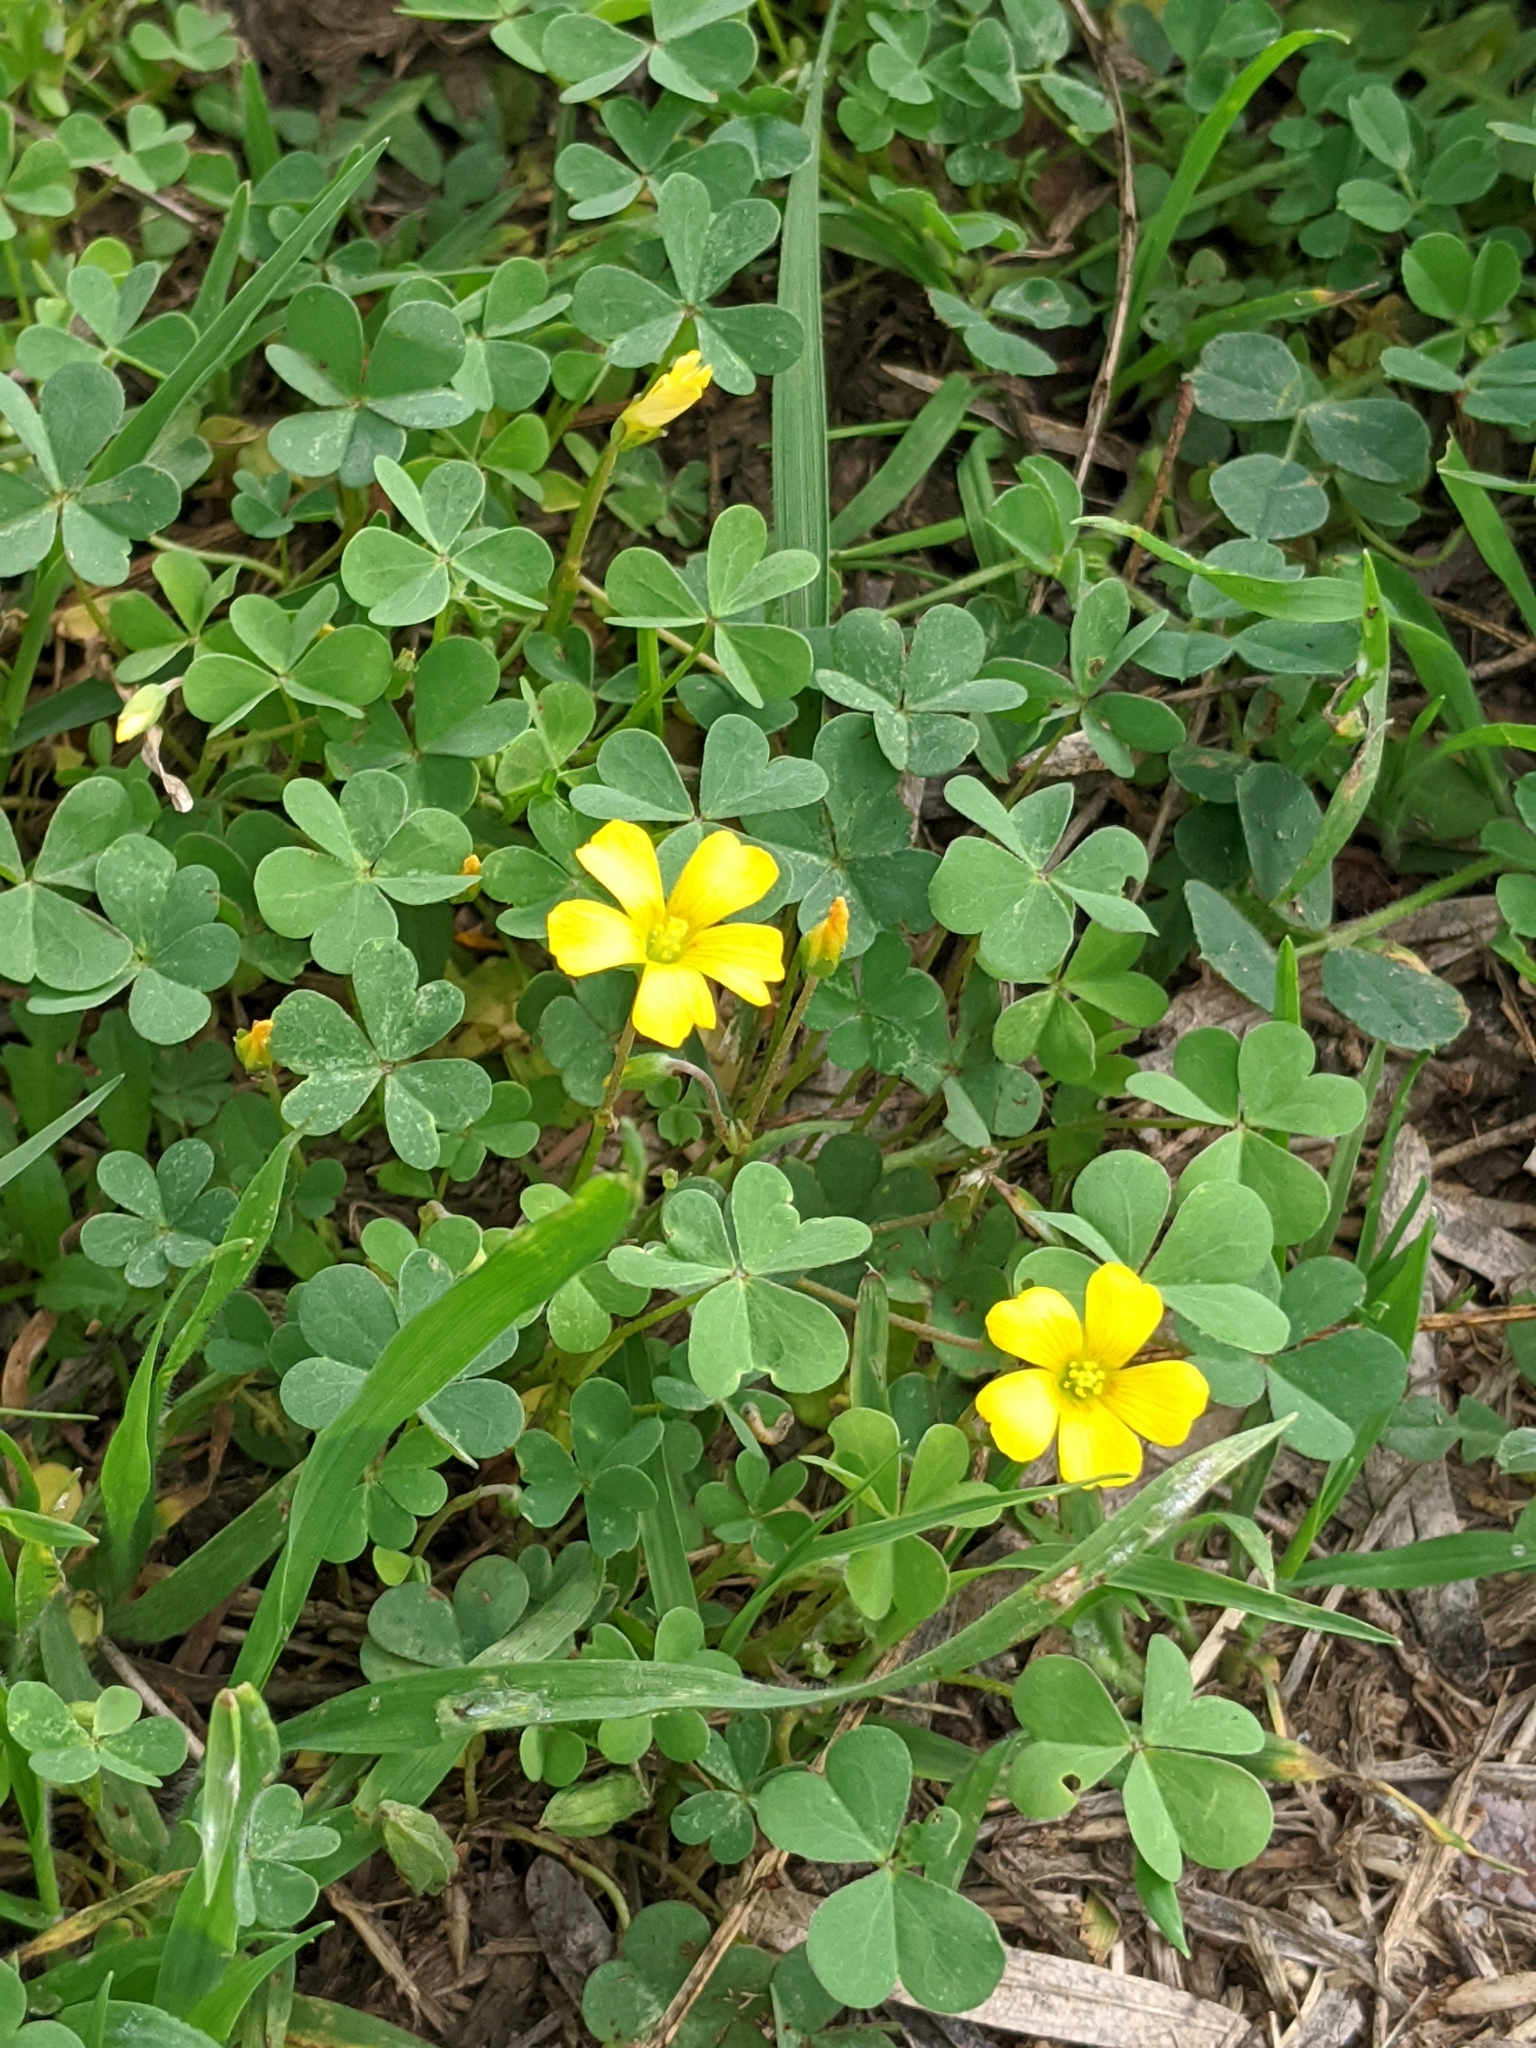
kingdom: Plantae
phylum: Tracheophyta
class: Magnoliopsida
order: Oxalidales
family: Oxalidaceae
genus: Oxalis
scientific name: Oxalis corniculata
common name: Procumbent yellow-sorrel
